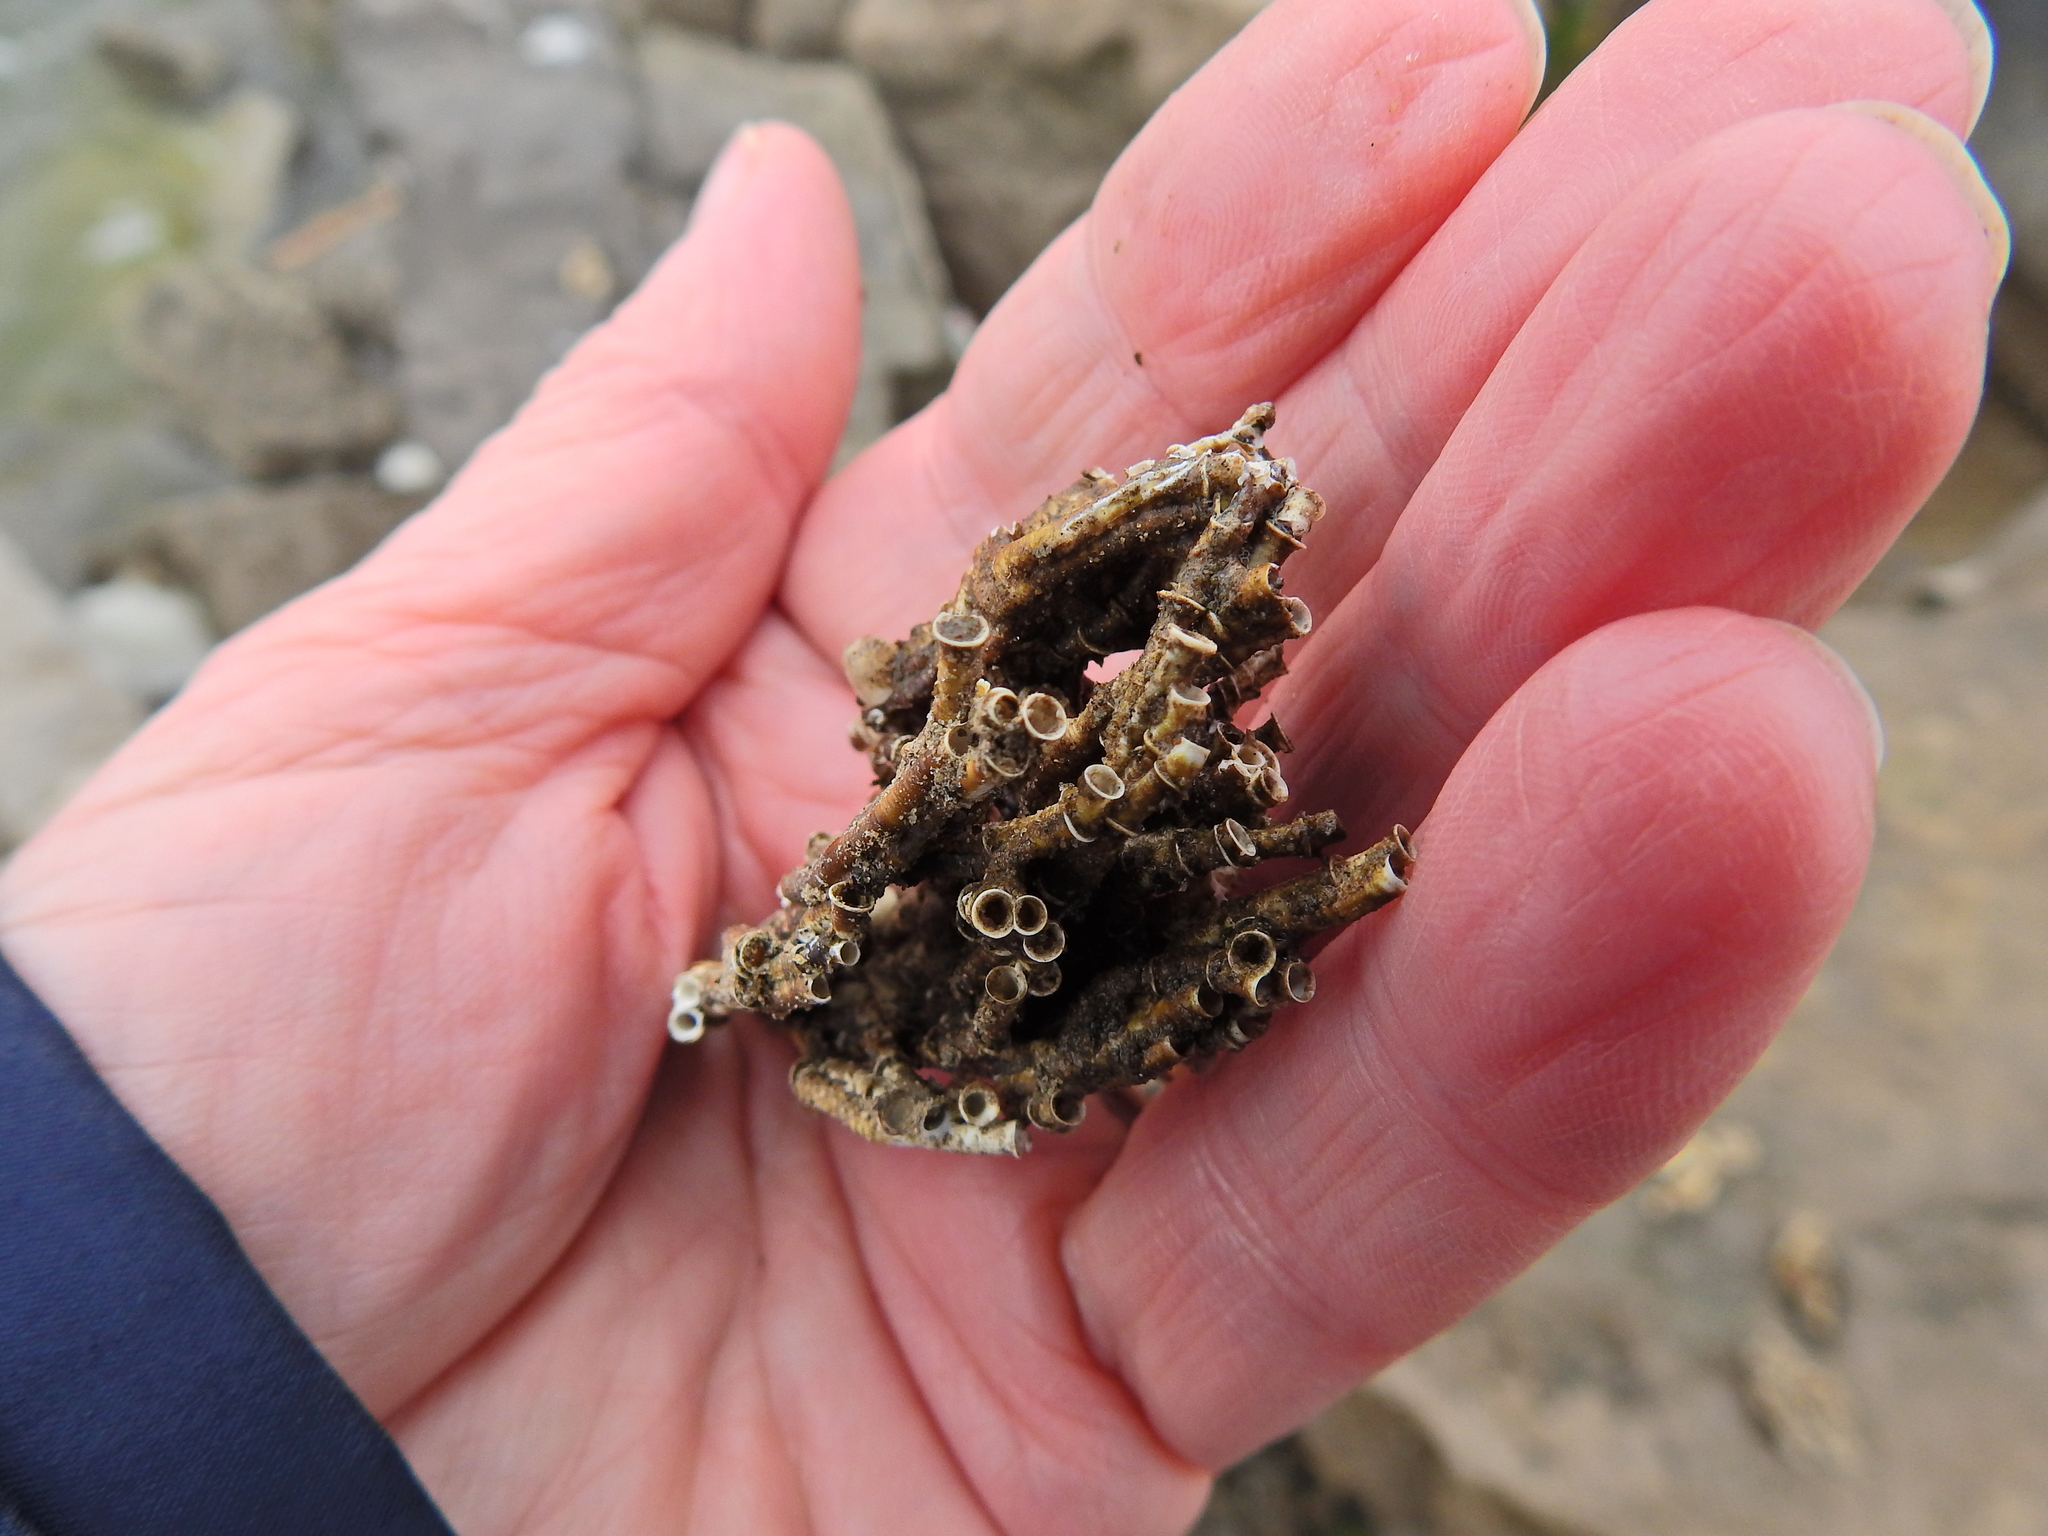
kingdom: Animalia
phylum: Annelida
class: Polychaeta
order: Sabellida
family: Serpulidae
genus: Ficopomatus
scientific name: Ficopomatus enigmaticus
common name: Australian tubeworm
